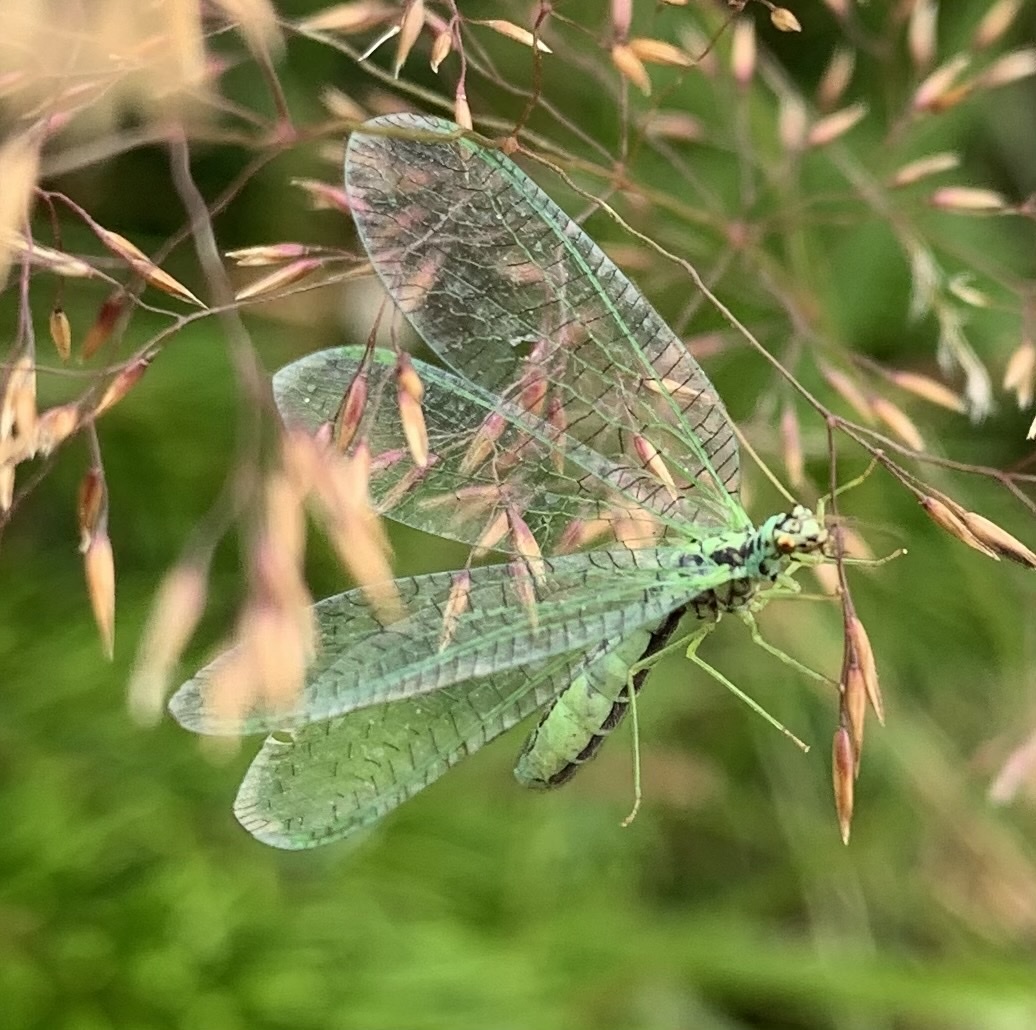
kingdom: Animalia
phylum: Arthropoda
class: Insecta
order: Neuroptera
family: Chrysopidae
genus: Chrysopa
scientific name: Chrysopa perla
